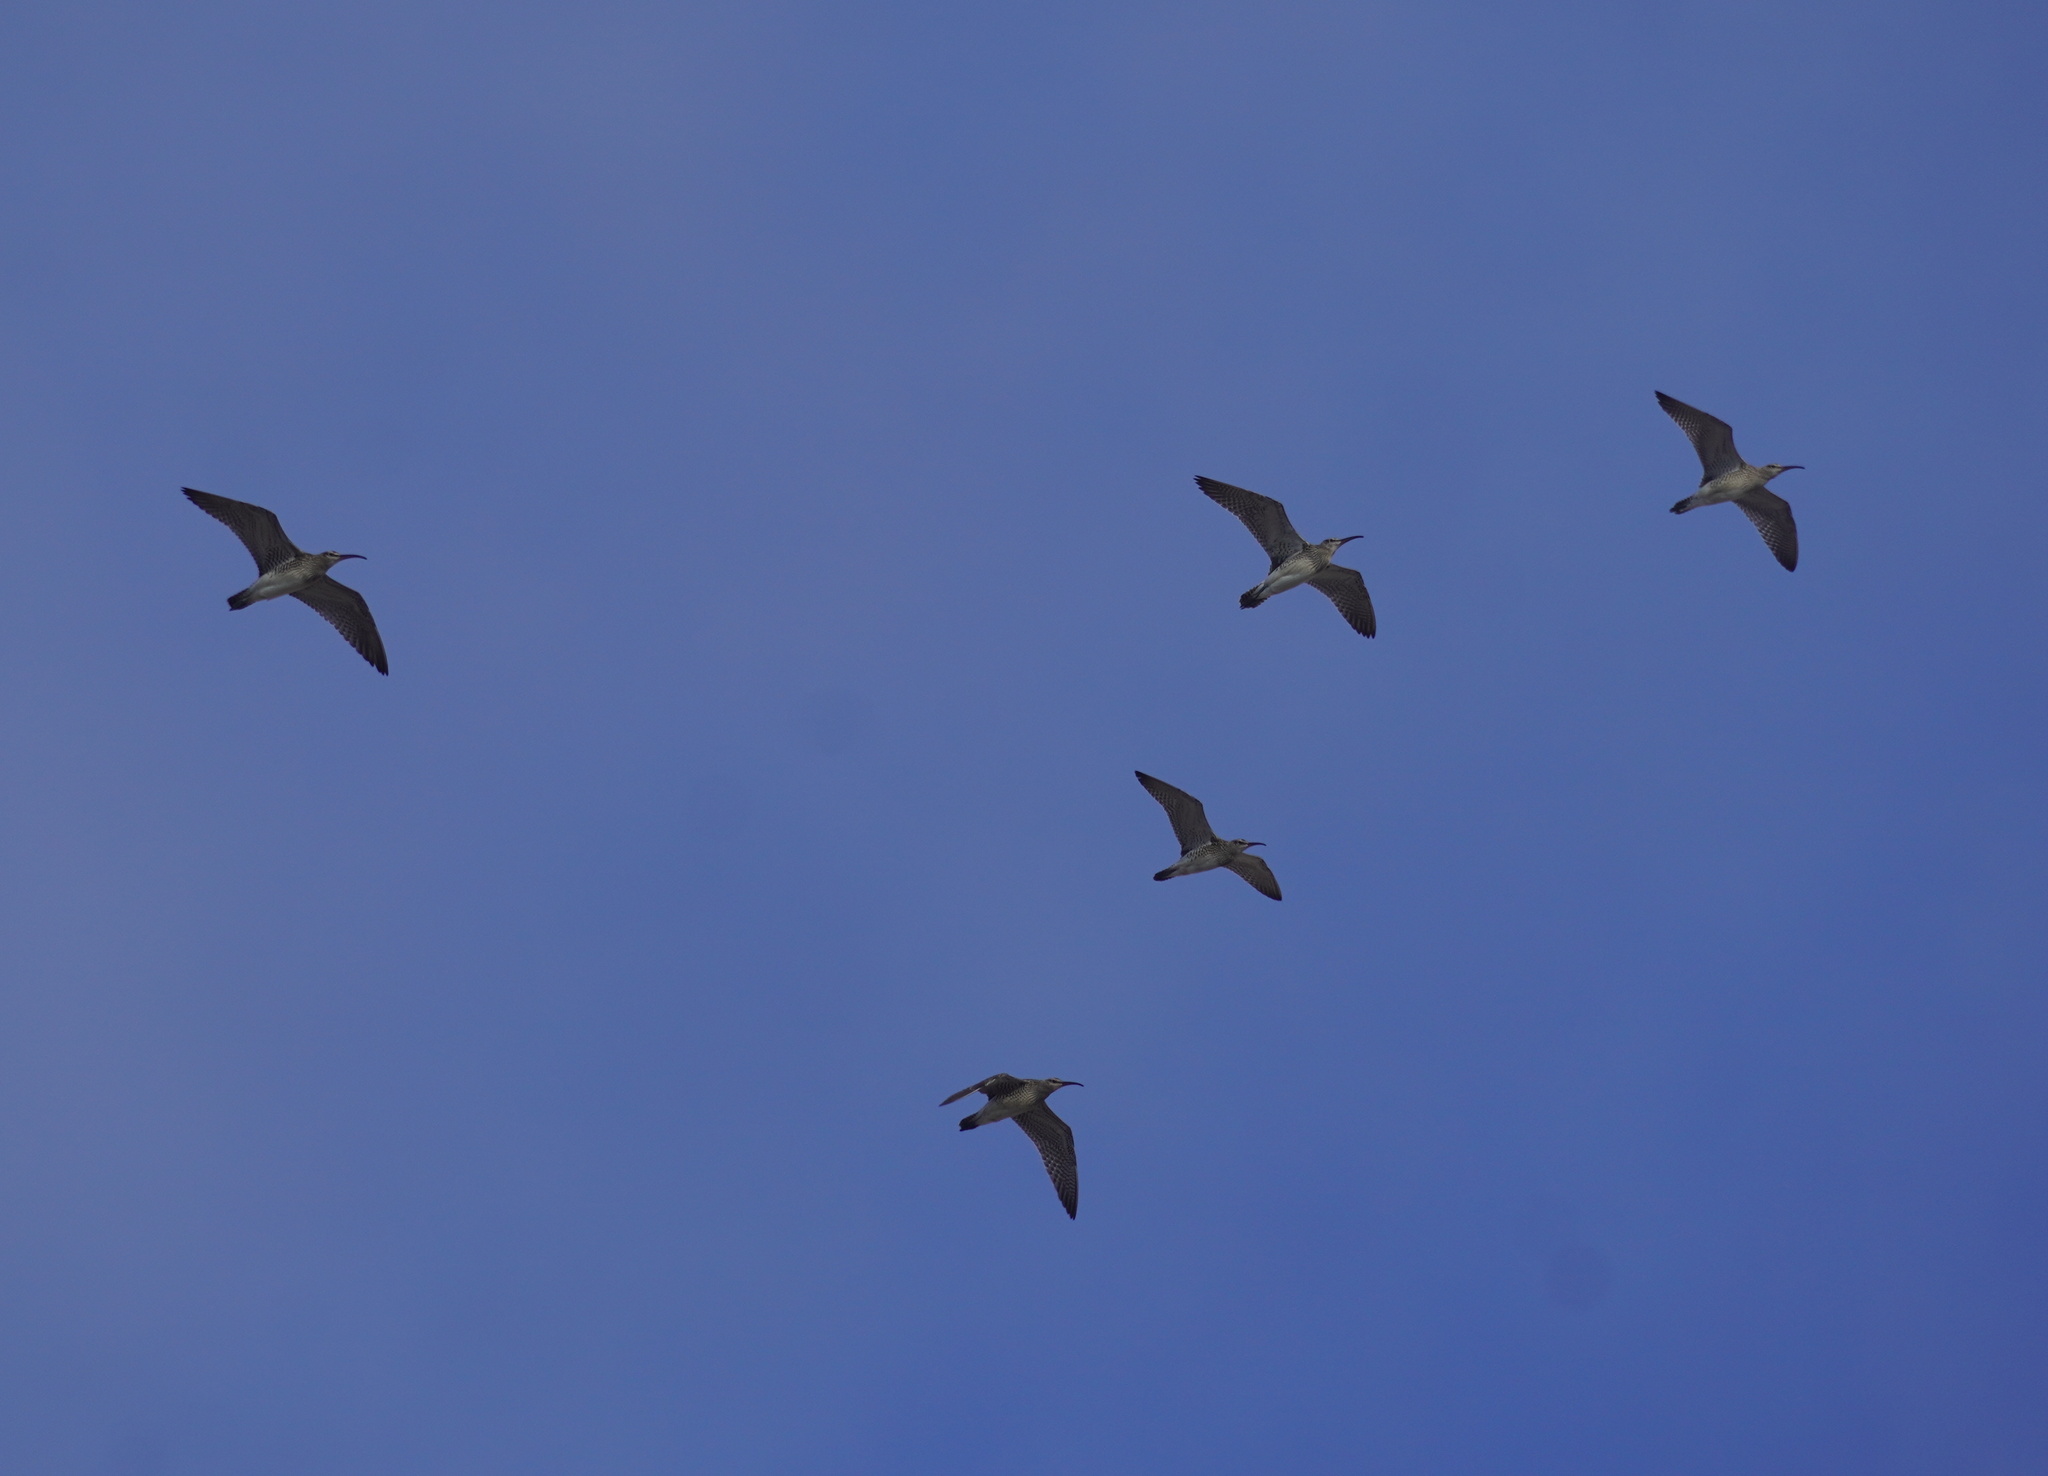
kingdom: Animalia
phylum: Chordata
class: Aves
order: Charadriiformes
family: Scolopacidae
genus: Numenius
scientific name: Numenius phaeopus
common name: Whimbrel
